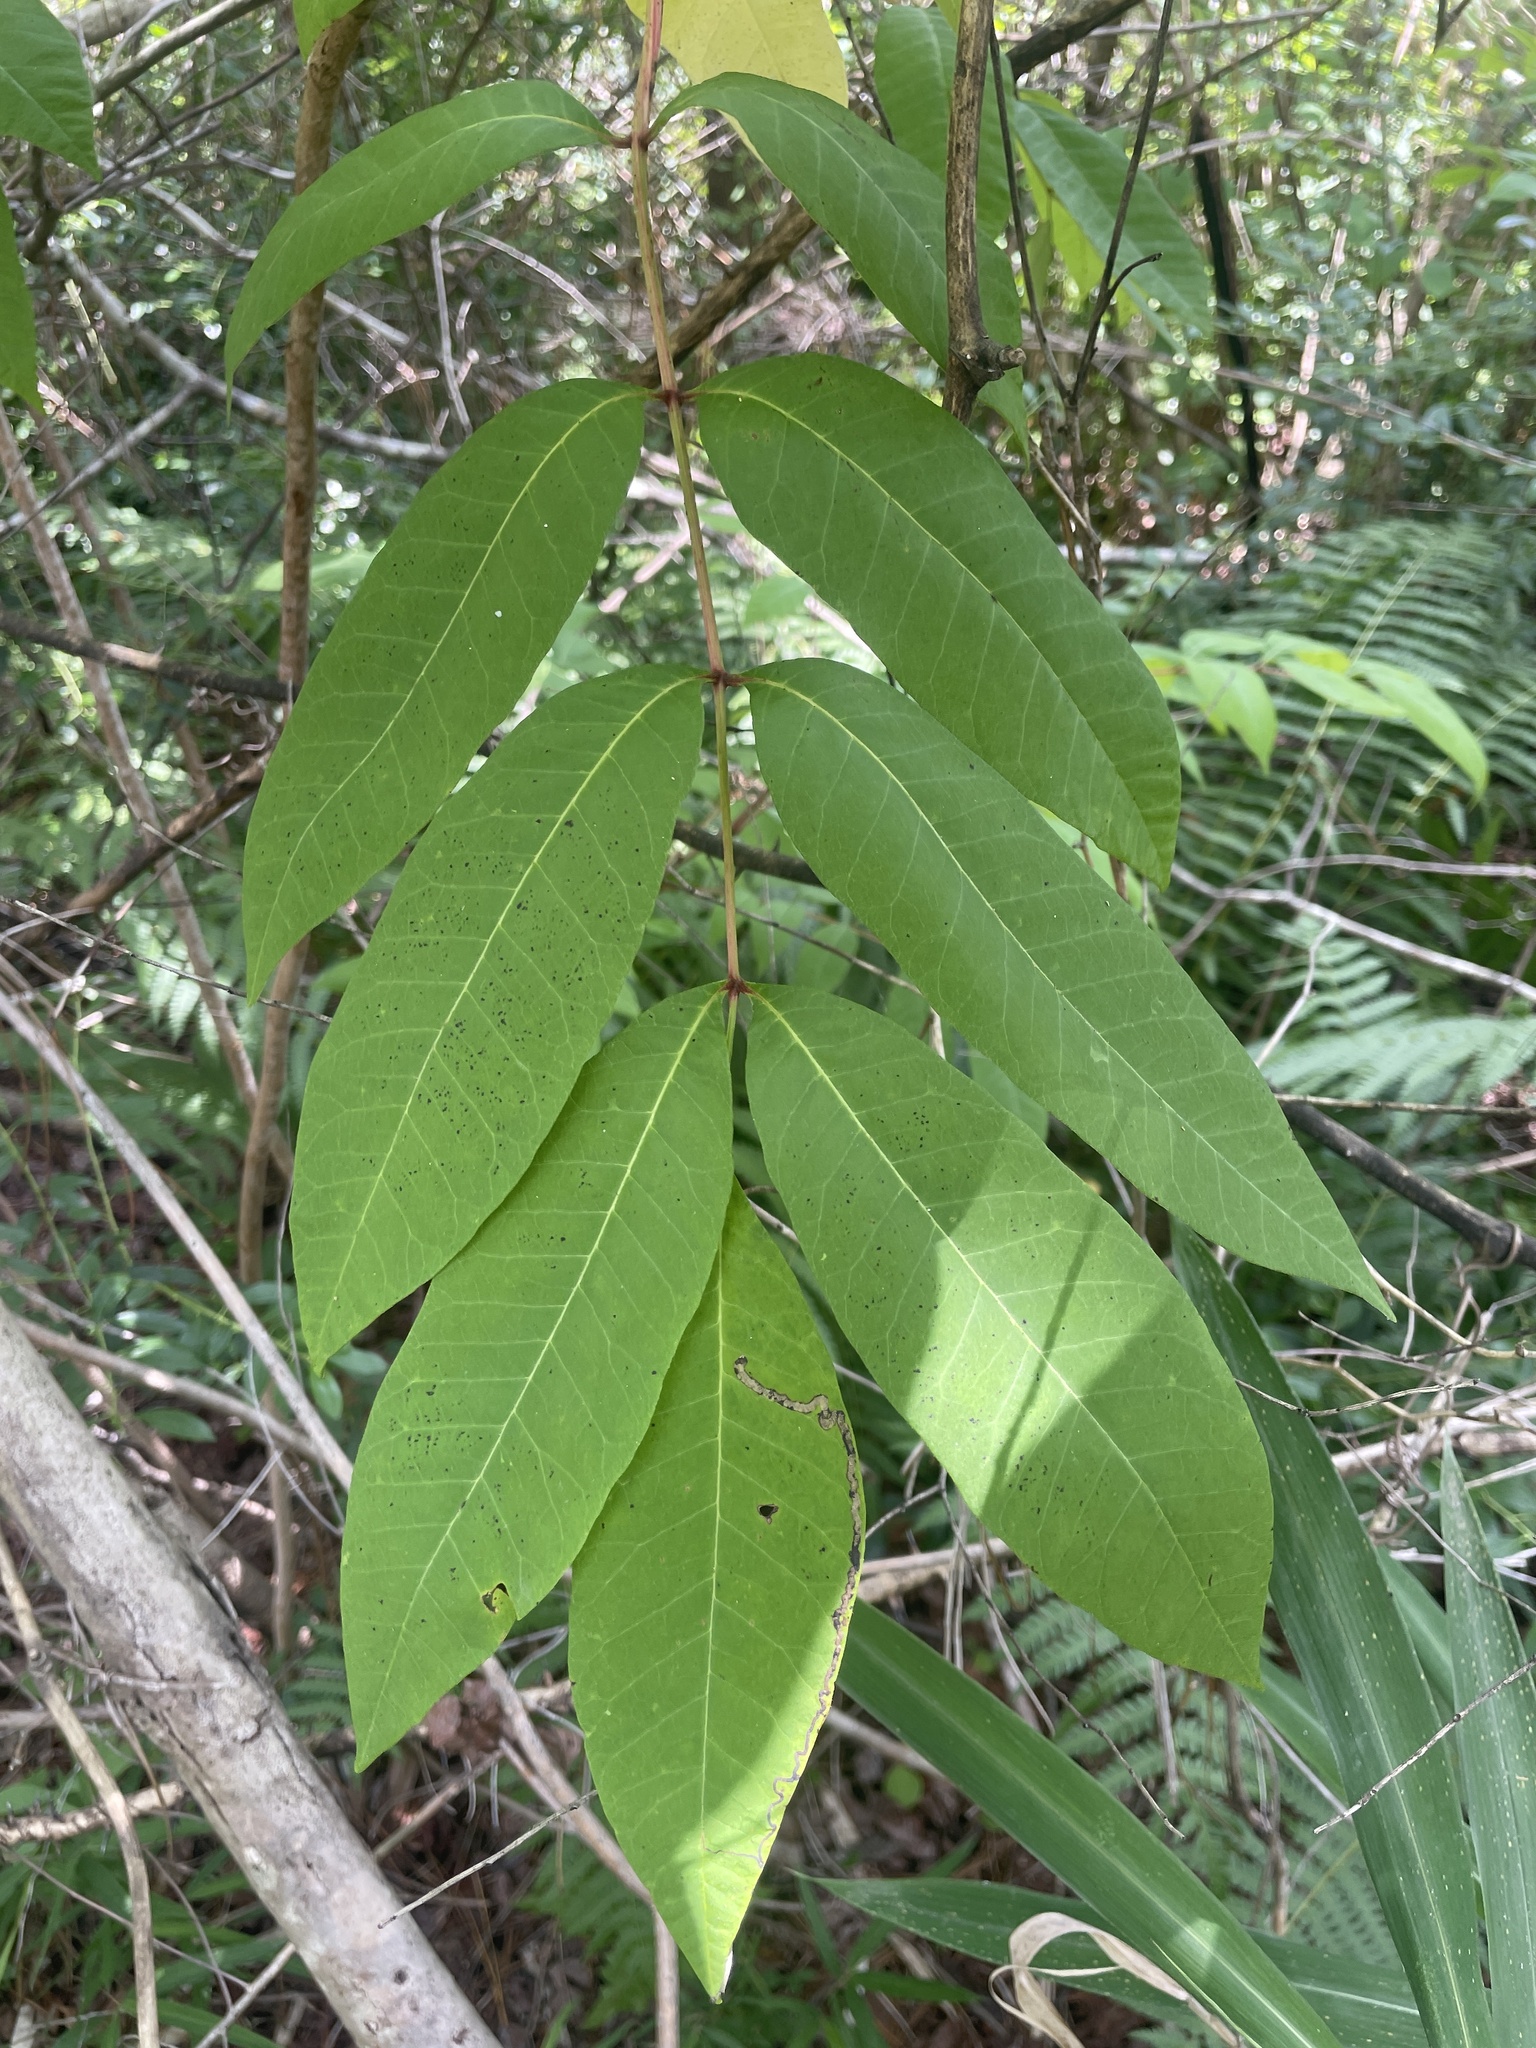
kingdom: Plantae
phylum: Tracheophyta
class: Magnoliopsida
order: Sapindales
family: Anacardiaceae
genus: Toxicodendron
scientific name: Toxicodendron vernix
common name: Poison sumac
